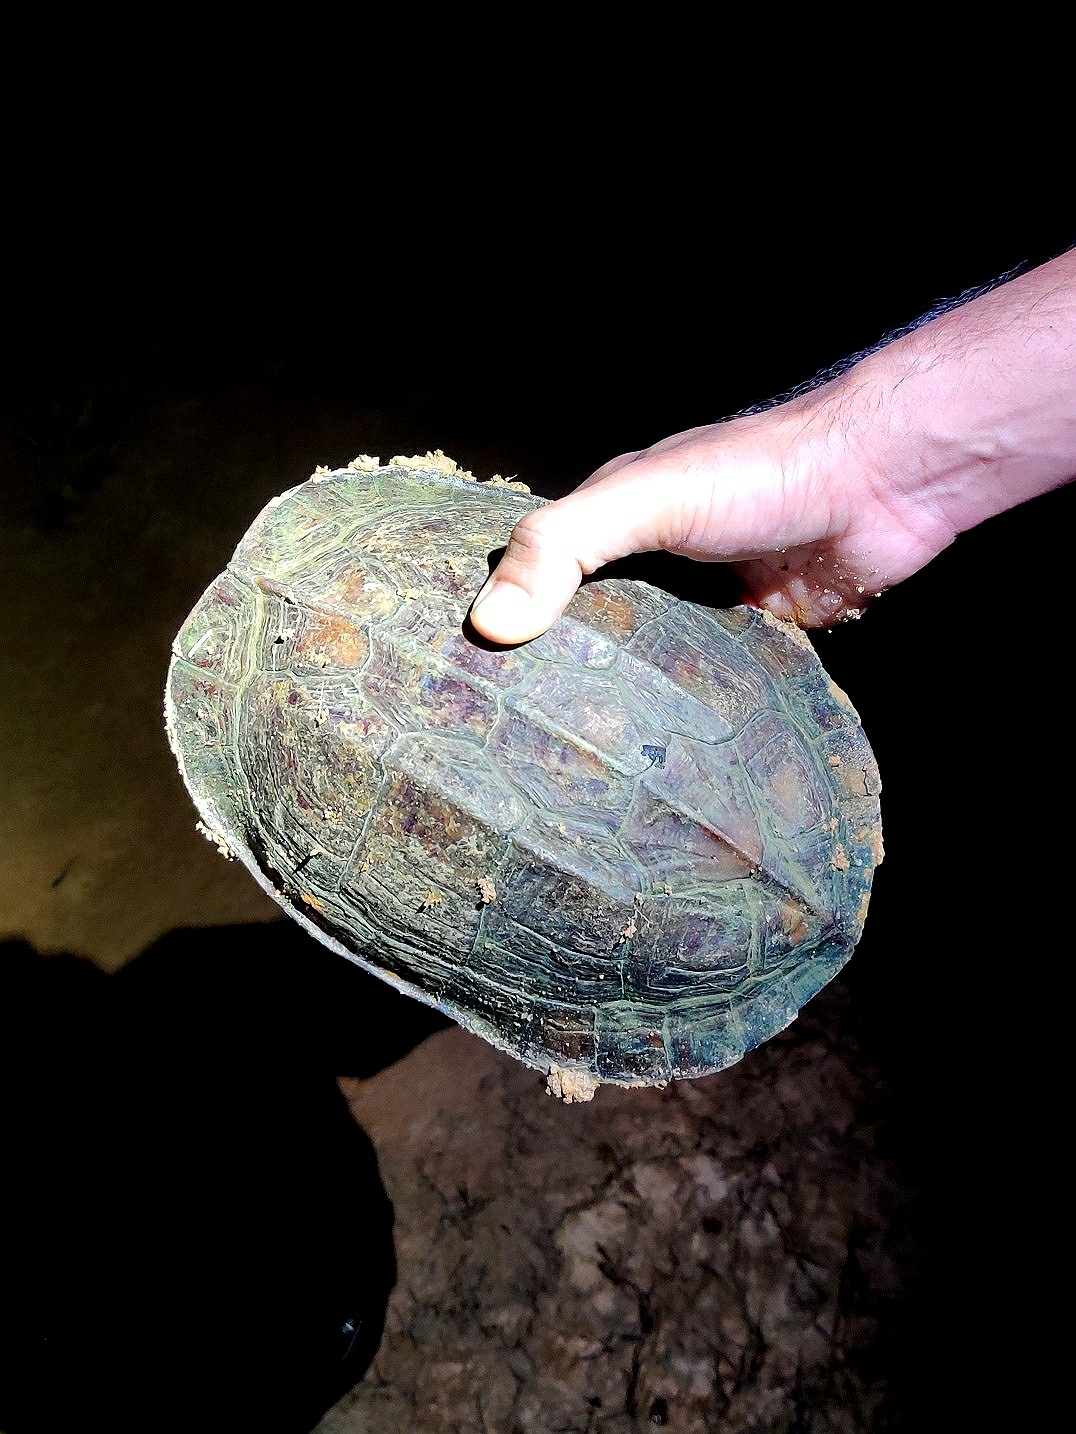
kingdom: Animalia
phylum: Chordata
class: Testudines
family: Geoemydidae
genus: Melanochelys
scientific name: Melanochelys trijuga
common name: Indian black turtle
